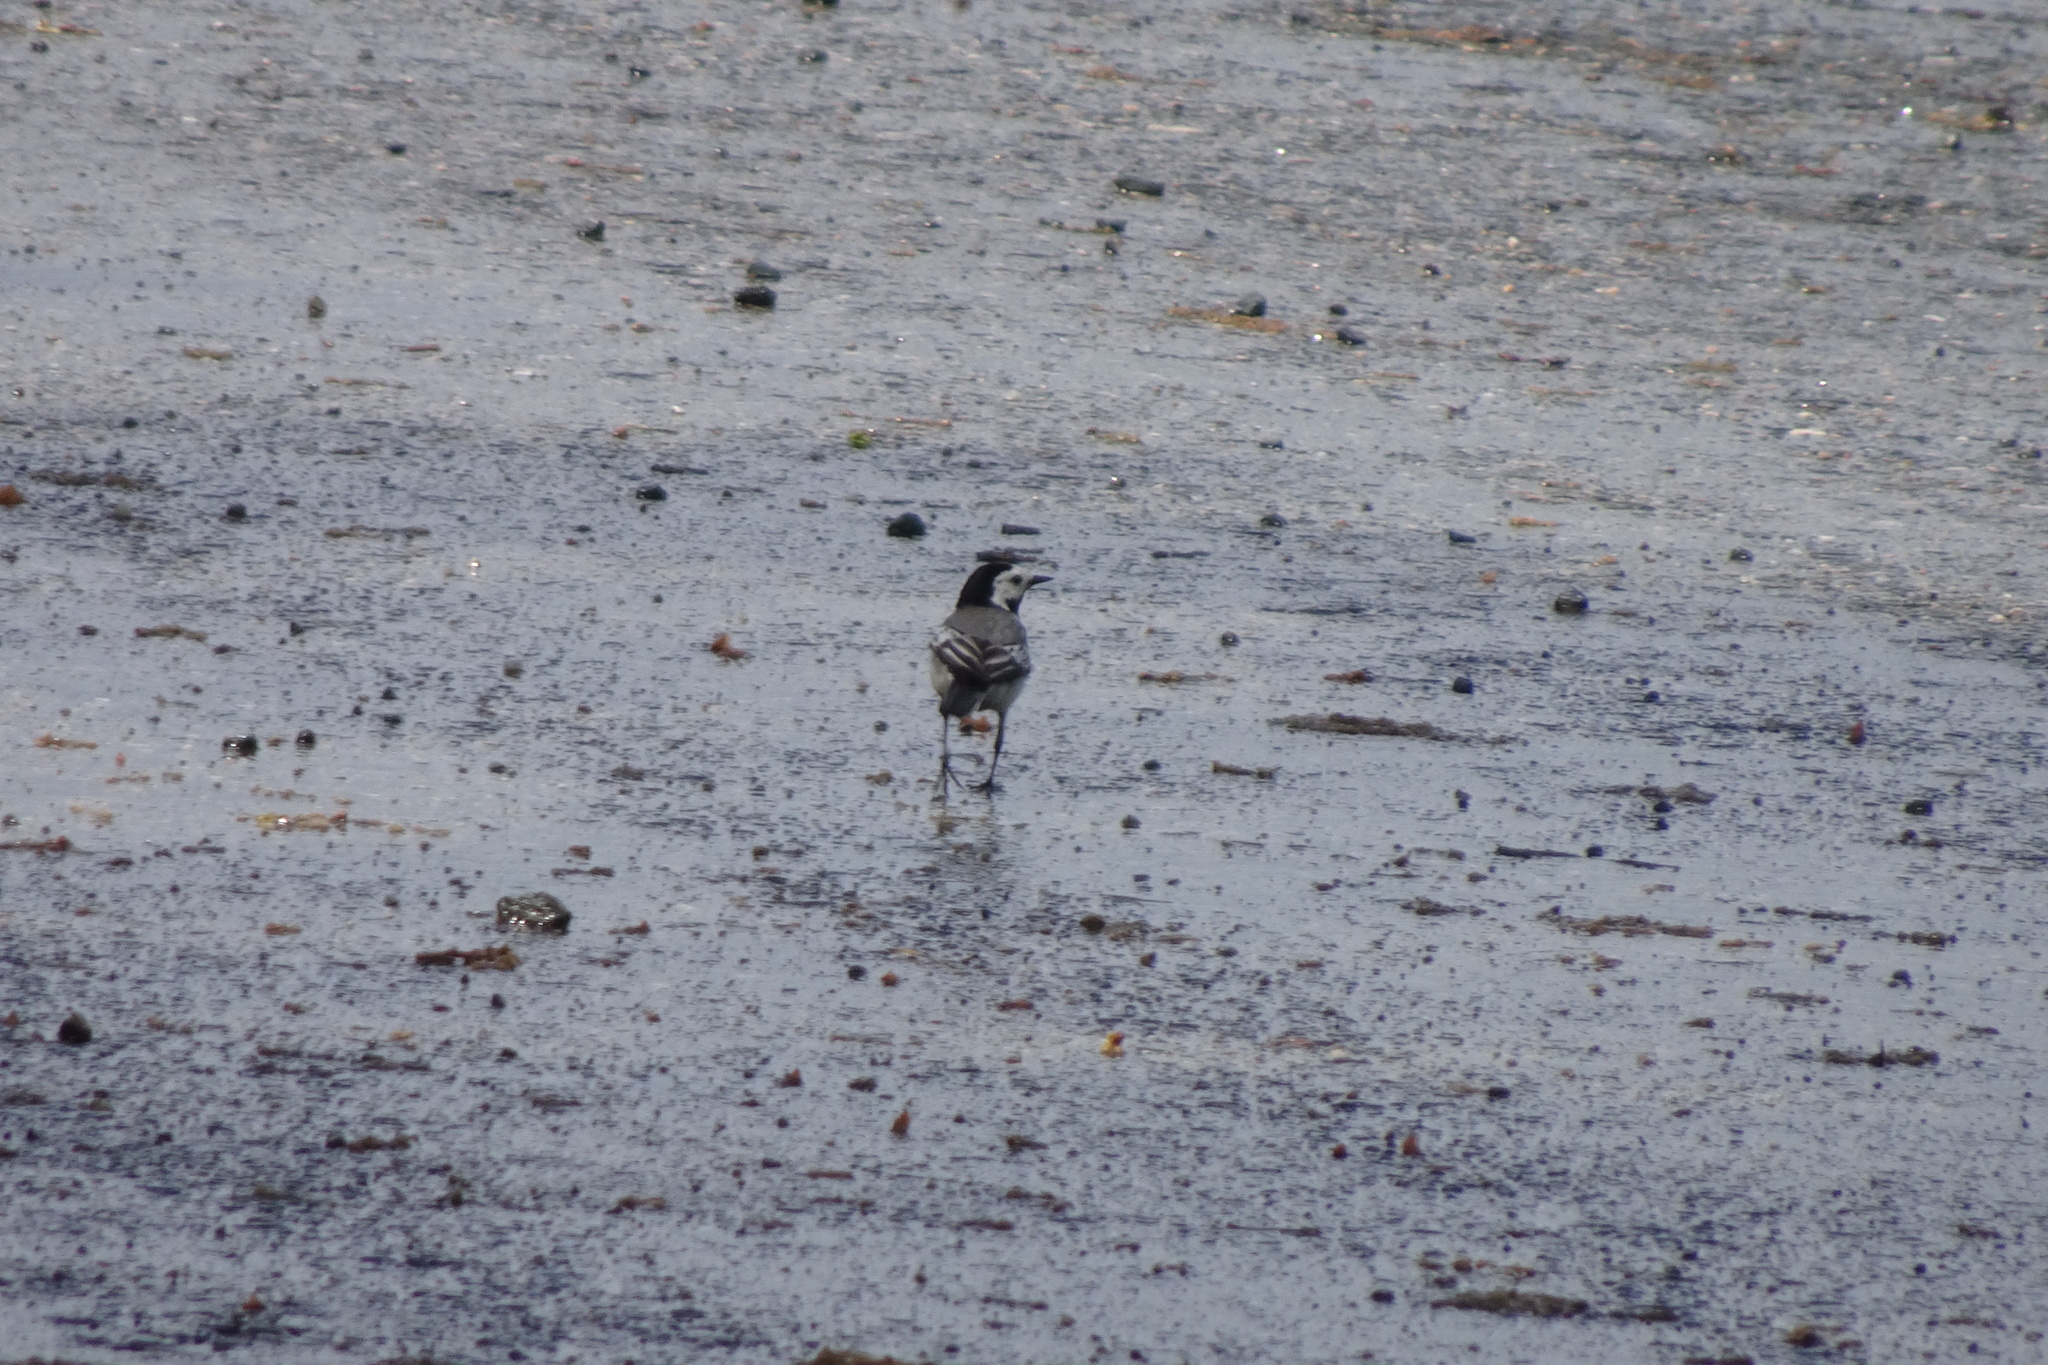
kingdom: Animalia
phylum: Chordata
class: Aves
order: Passeriformes
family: Motacillidae
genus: Motacilla
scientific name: Motacilla alba
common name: White wagtail
